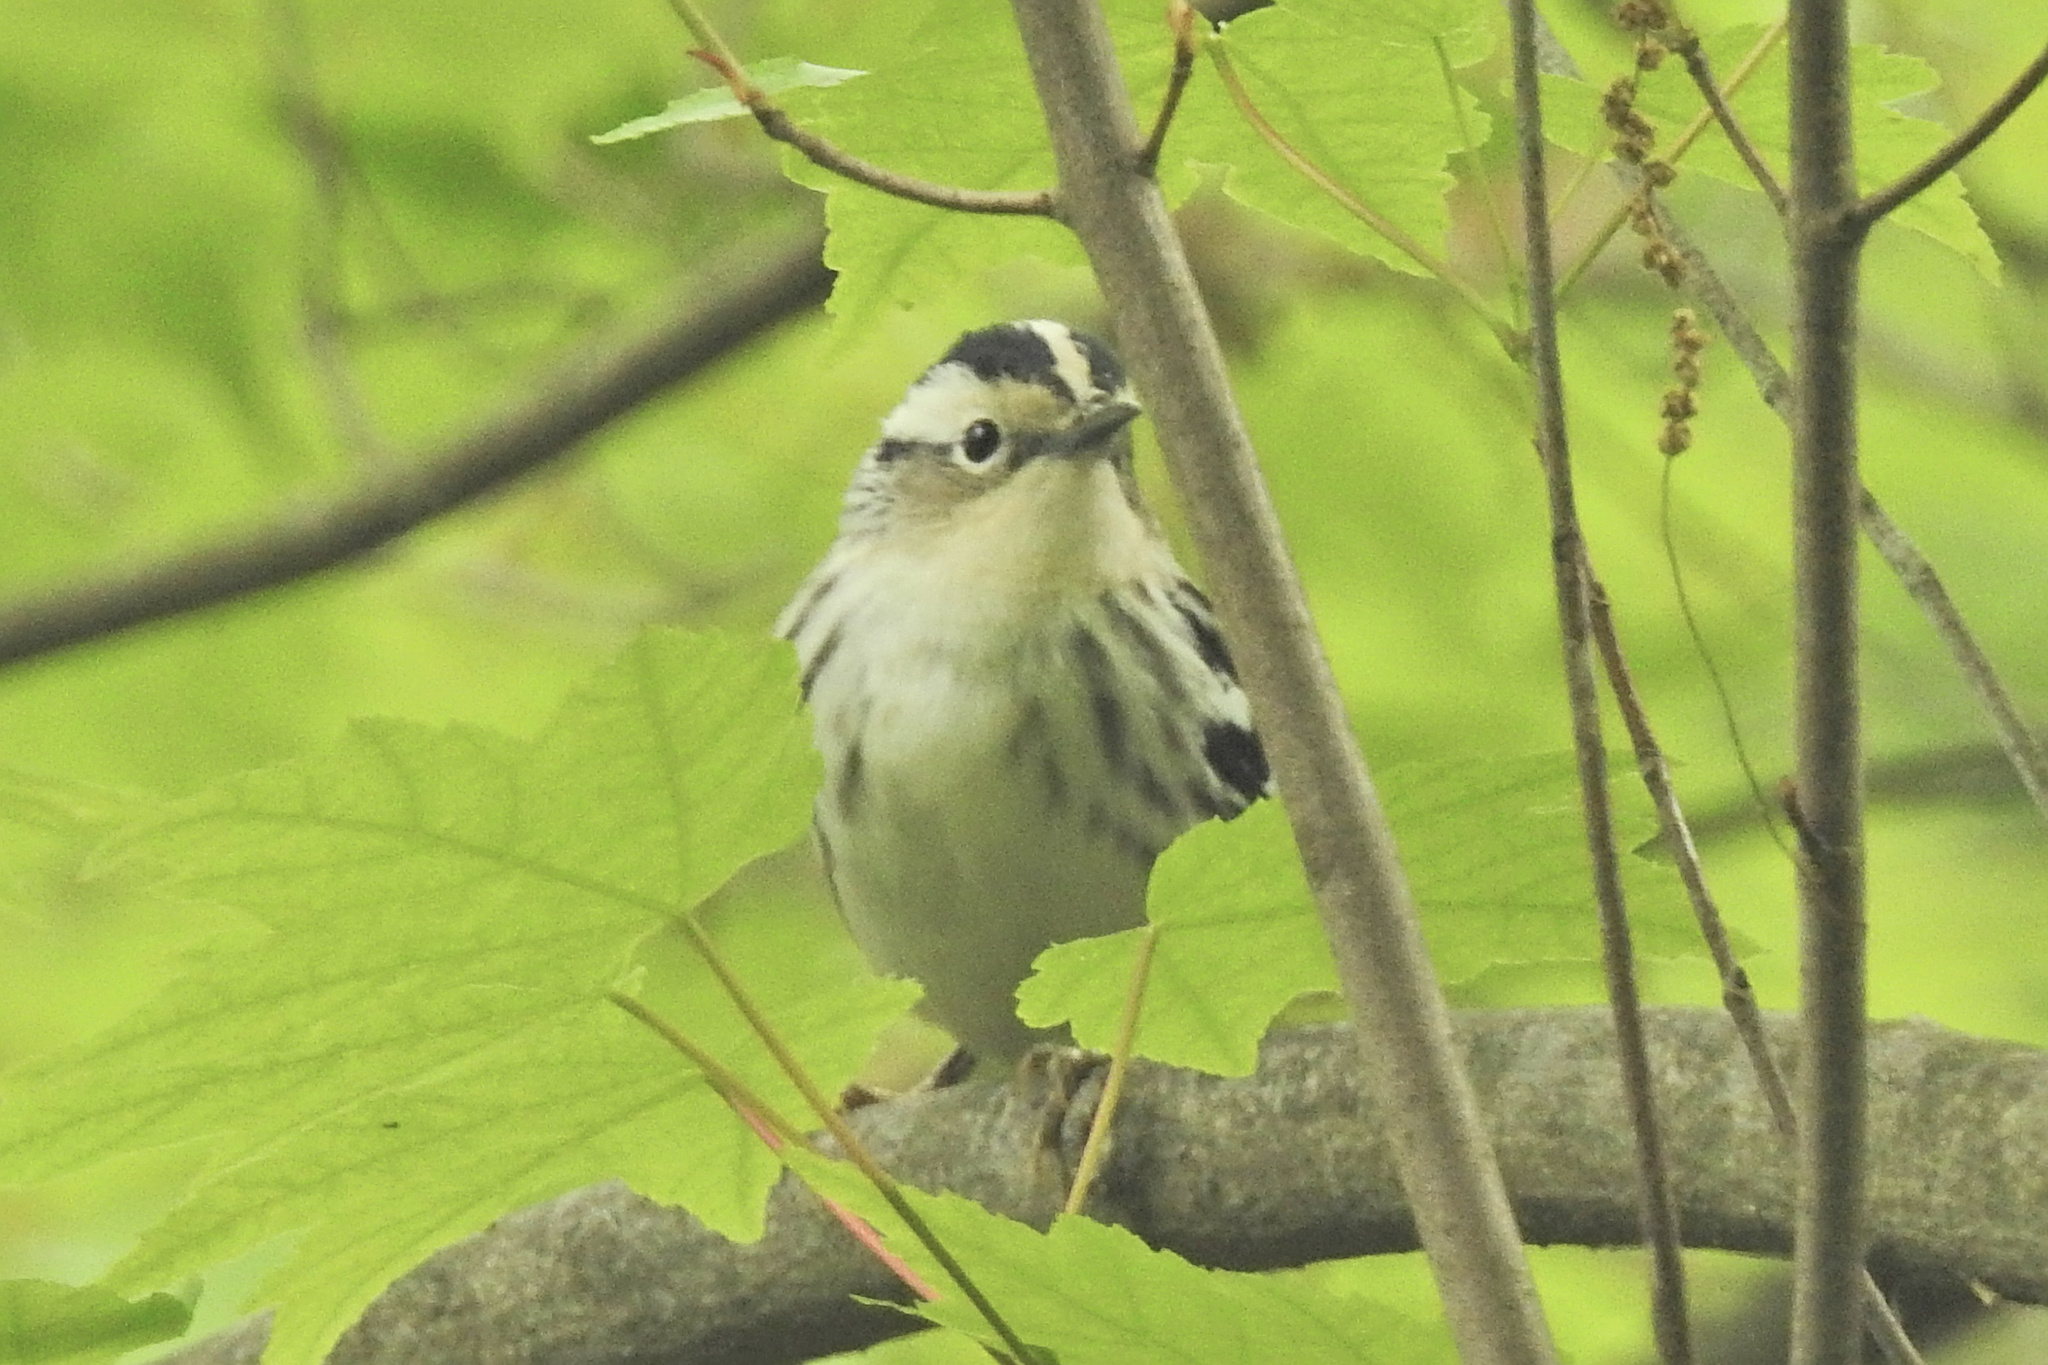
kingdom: Animalia
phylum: Chordata
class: Aves
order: Passeriformes
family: Parulidae
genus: Mniotilta
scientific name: Mniotilta varia
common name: Black-and-white warbler
